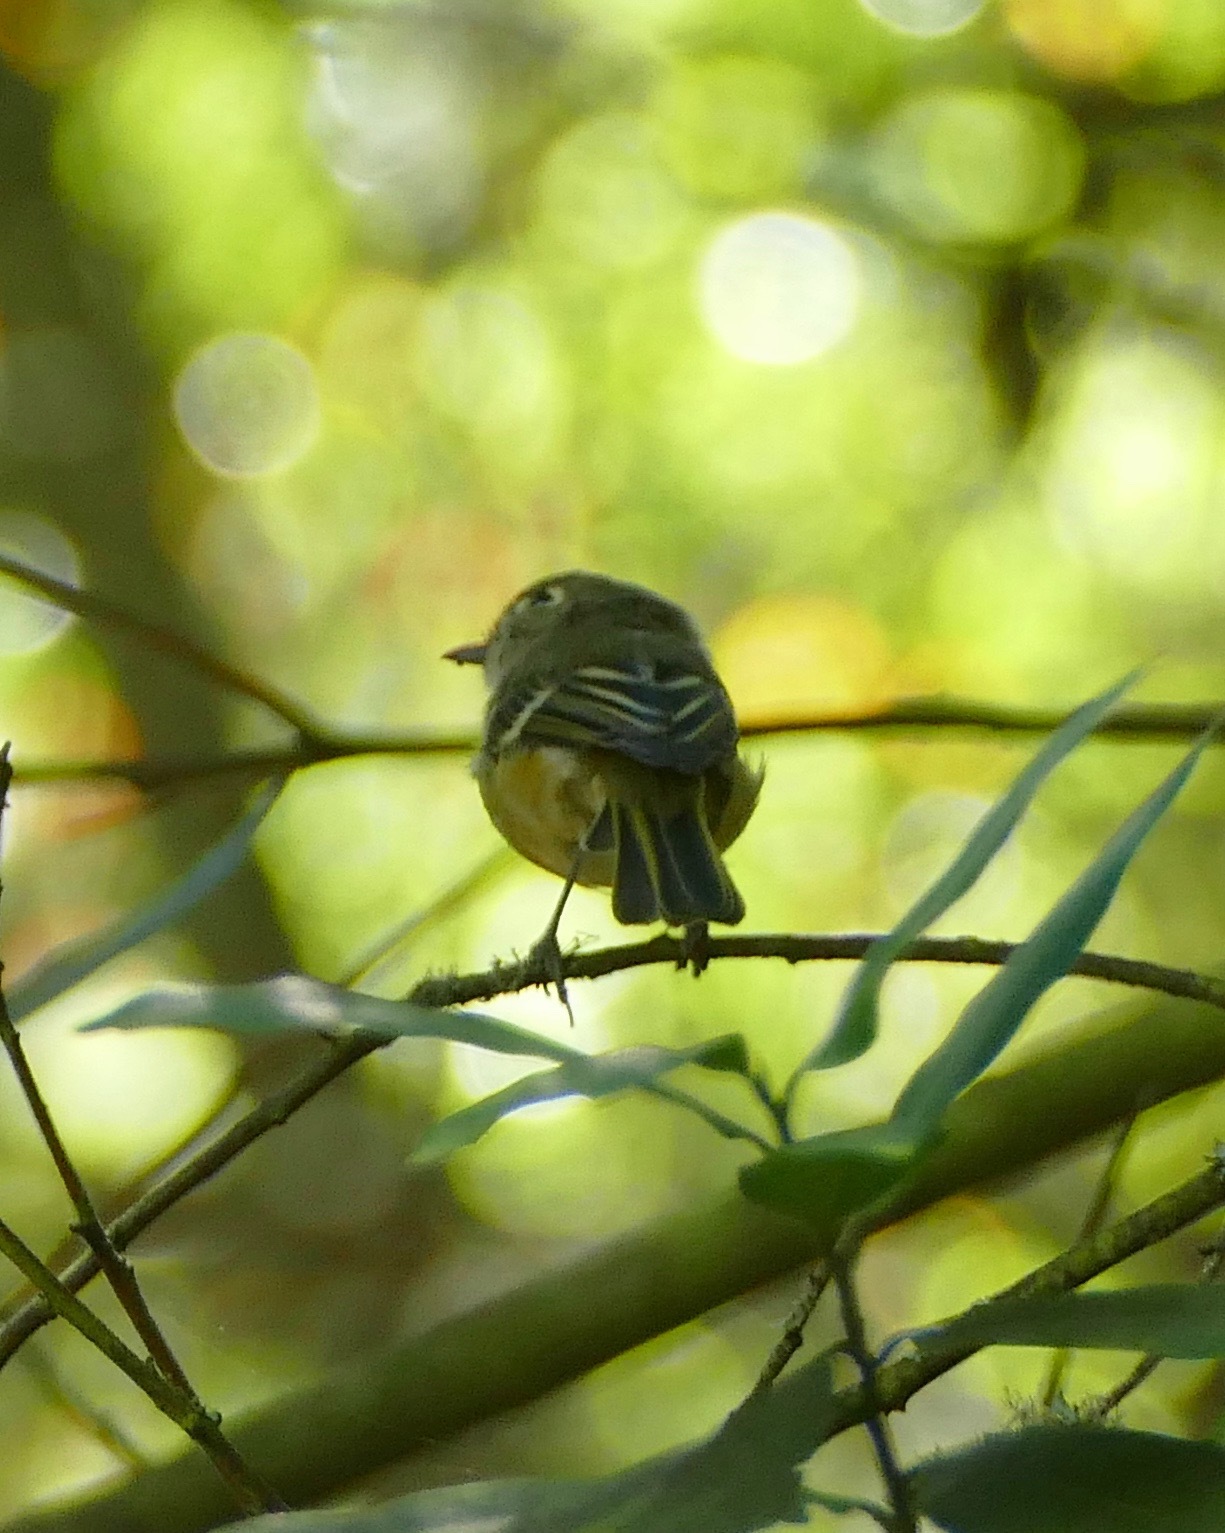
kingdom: Animalia
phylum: Chordata
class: Aves
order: Passeriformes
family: Vireonidae
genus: Vireo
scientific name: Vireo huttoni
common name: Hutton's vireo
